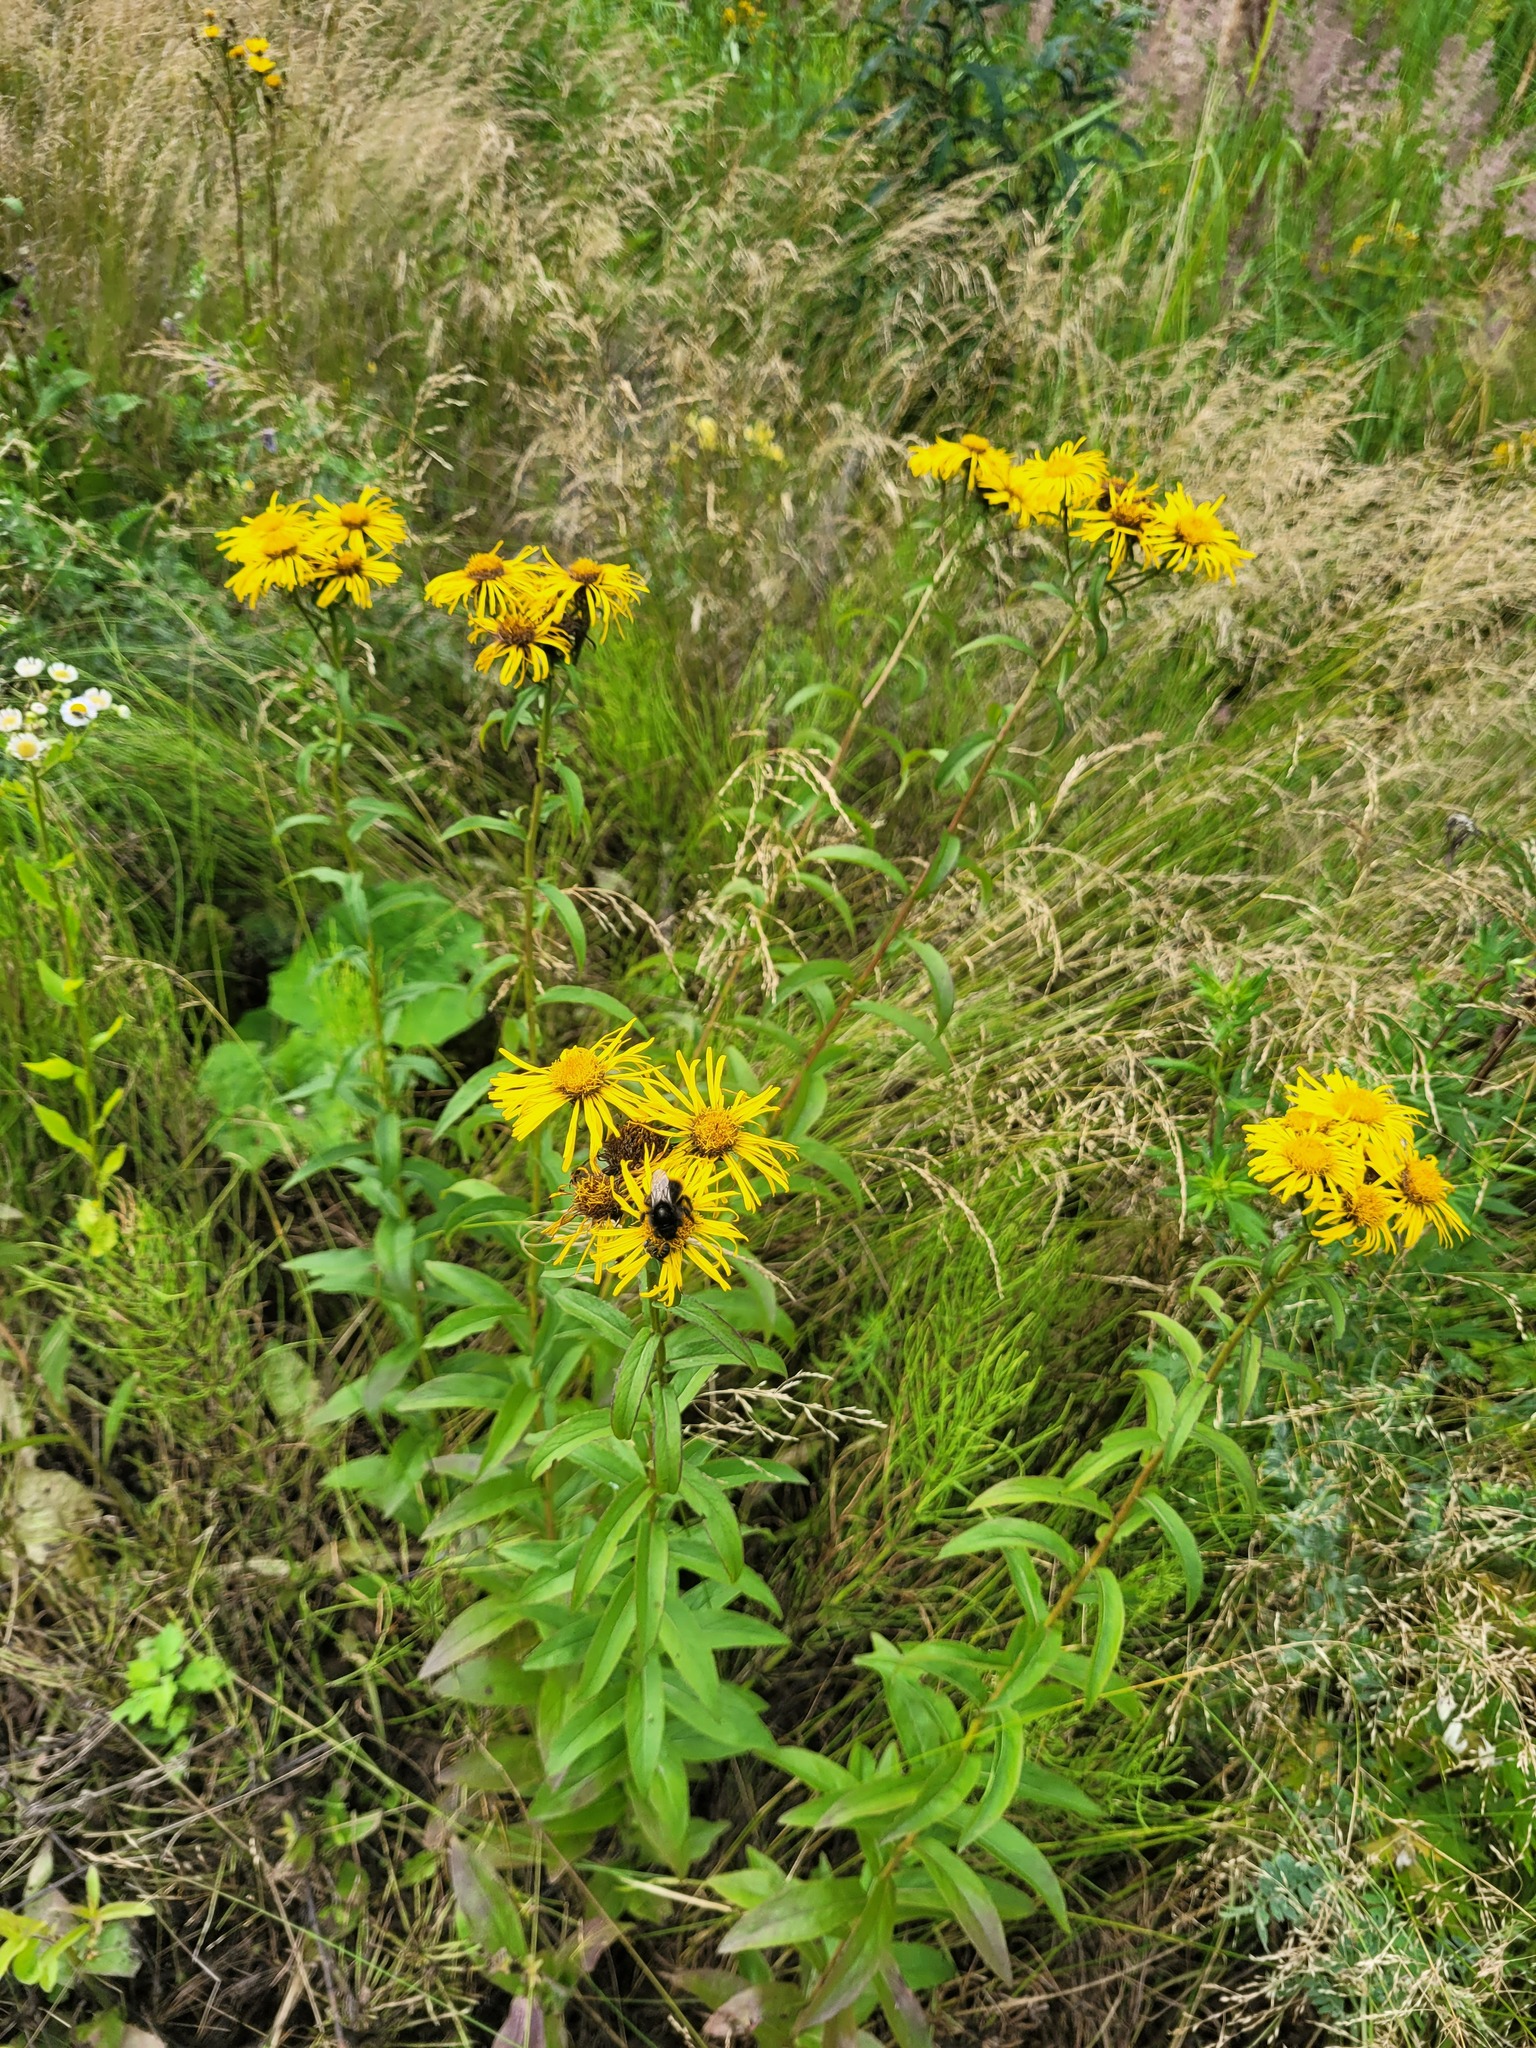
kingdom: Plantae
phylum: Tracheophyta
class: Magnoliopsida
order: Asterales
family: Asteraceae
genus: Pentanema
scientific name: Pentanema salicinum
